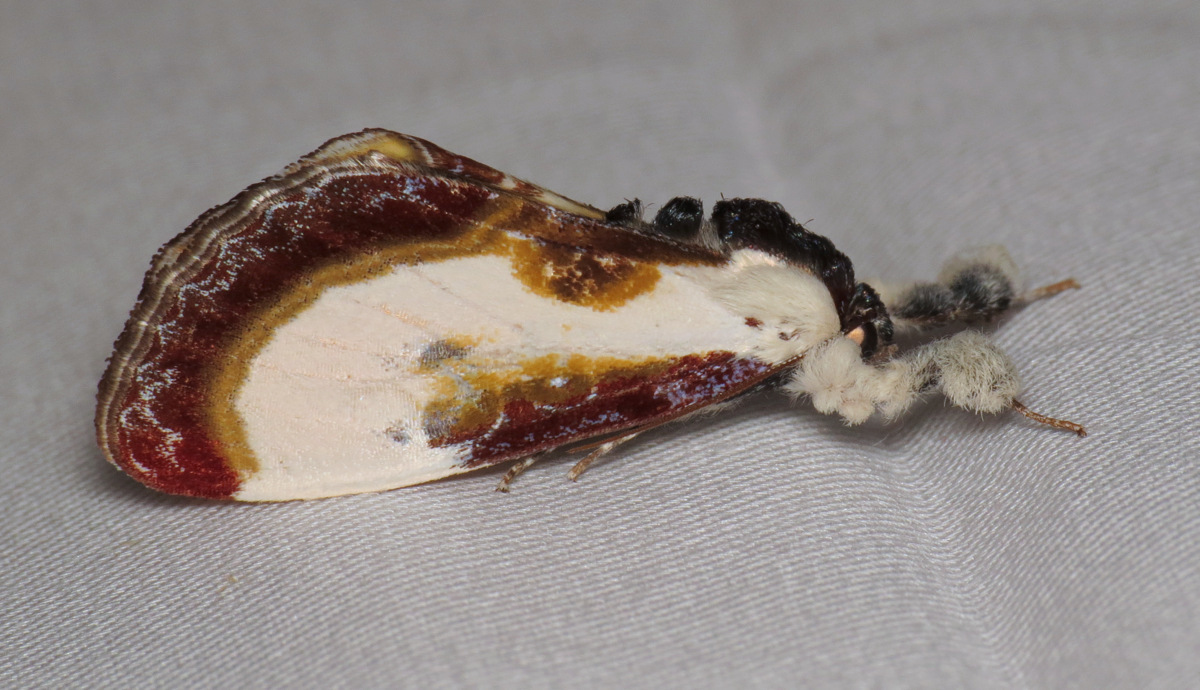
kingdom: Animalia
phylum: Arthropoda
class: Insecta
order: Lepidoptera
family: Noctuidae
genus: Eudryas
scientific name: Eudryas grata
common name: Beautiful wood-nymph
